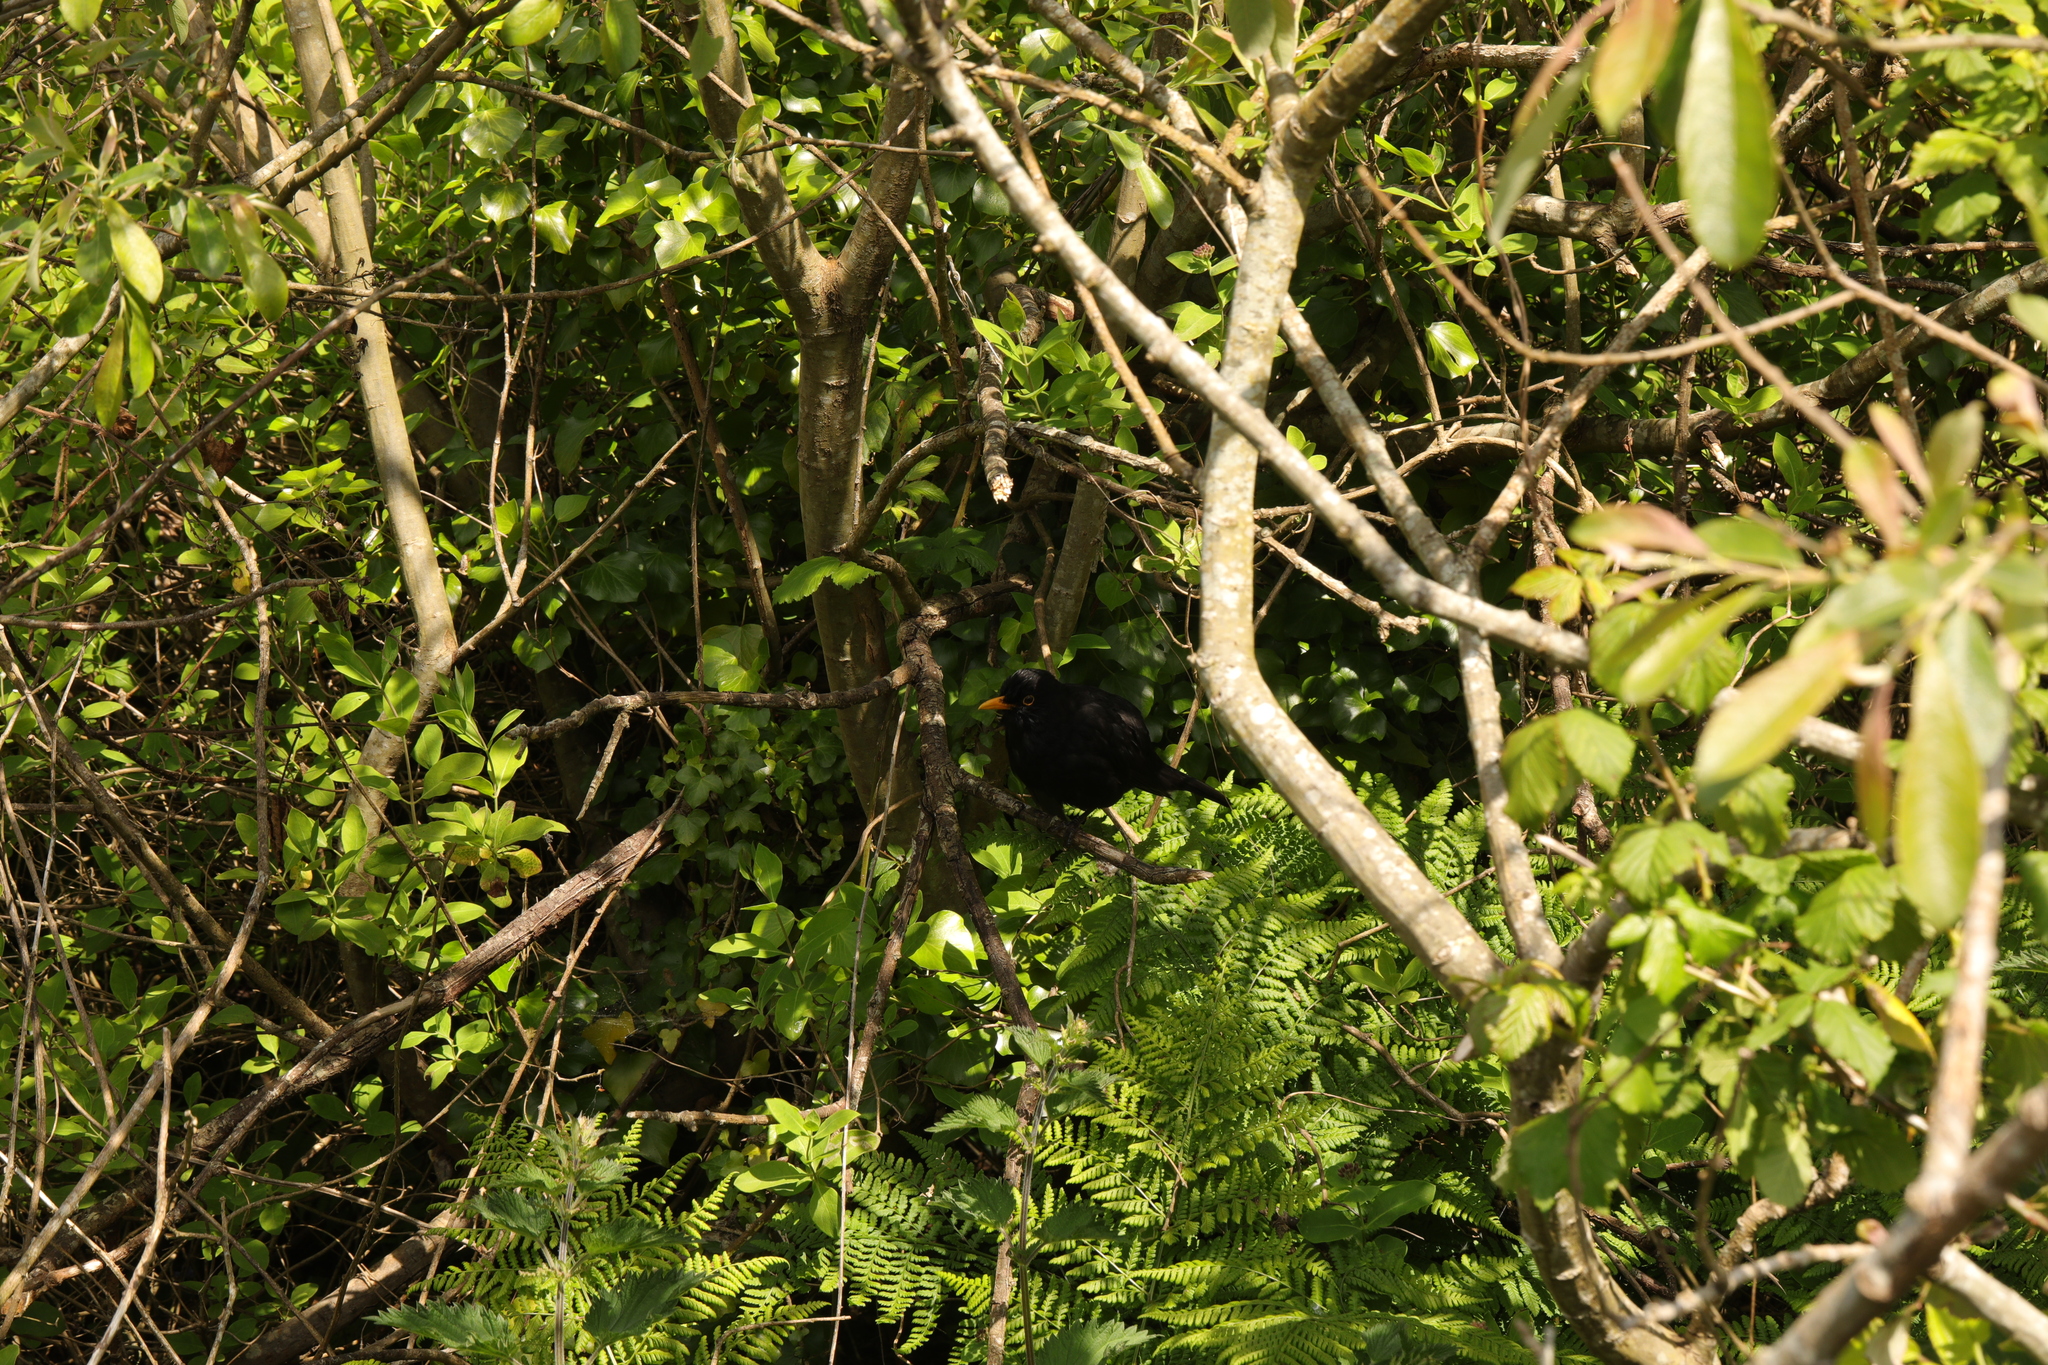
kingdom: Animalia
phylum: Chordata
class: Aves
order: Passeriformes
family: Turdidae
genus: Turdus
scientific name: Turdus merula
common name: Common blackbird
